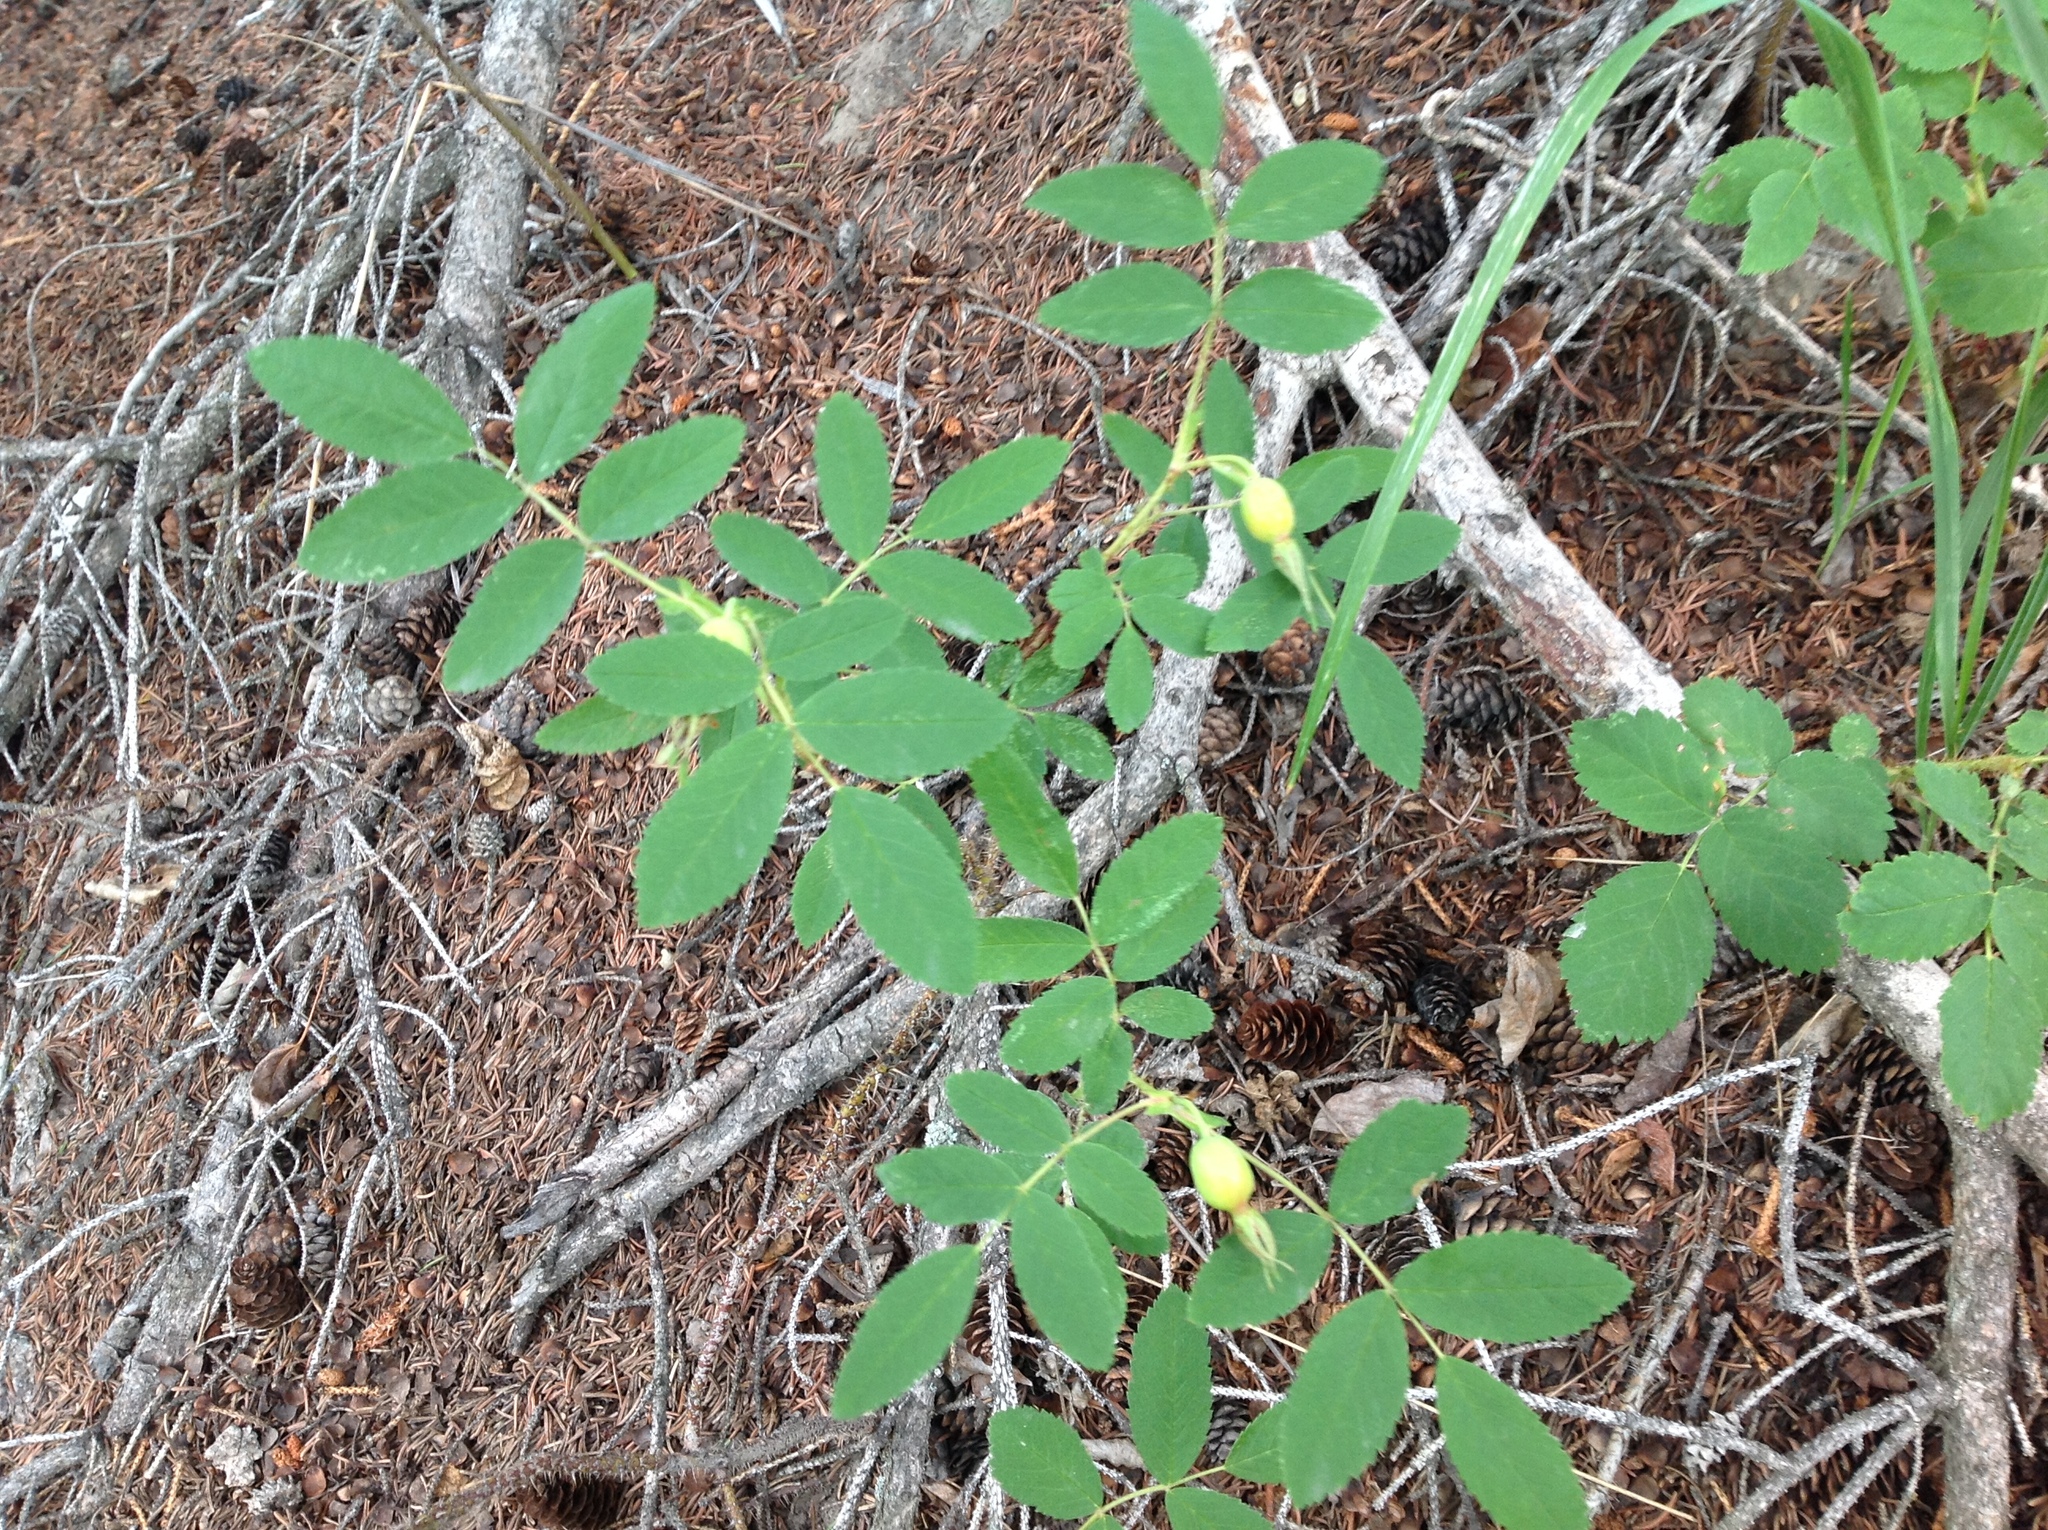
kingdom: Plantae
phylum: Tracheophyta
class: Magnoliopsida
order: Rosales
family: Rosaceae
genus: Rosa
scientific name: Rosa acicularis
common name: Prickly rose
